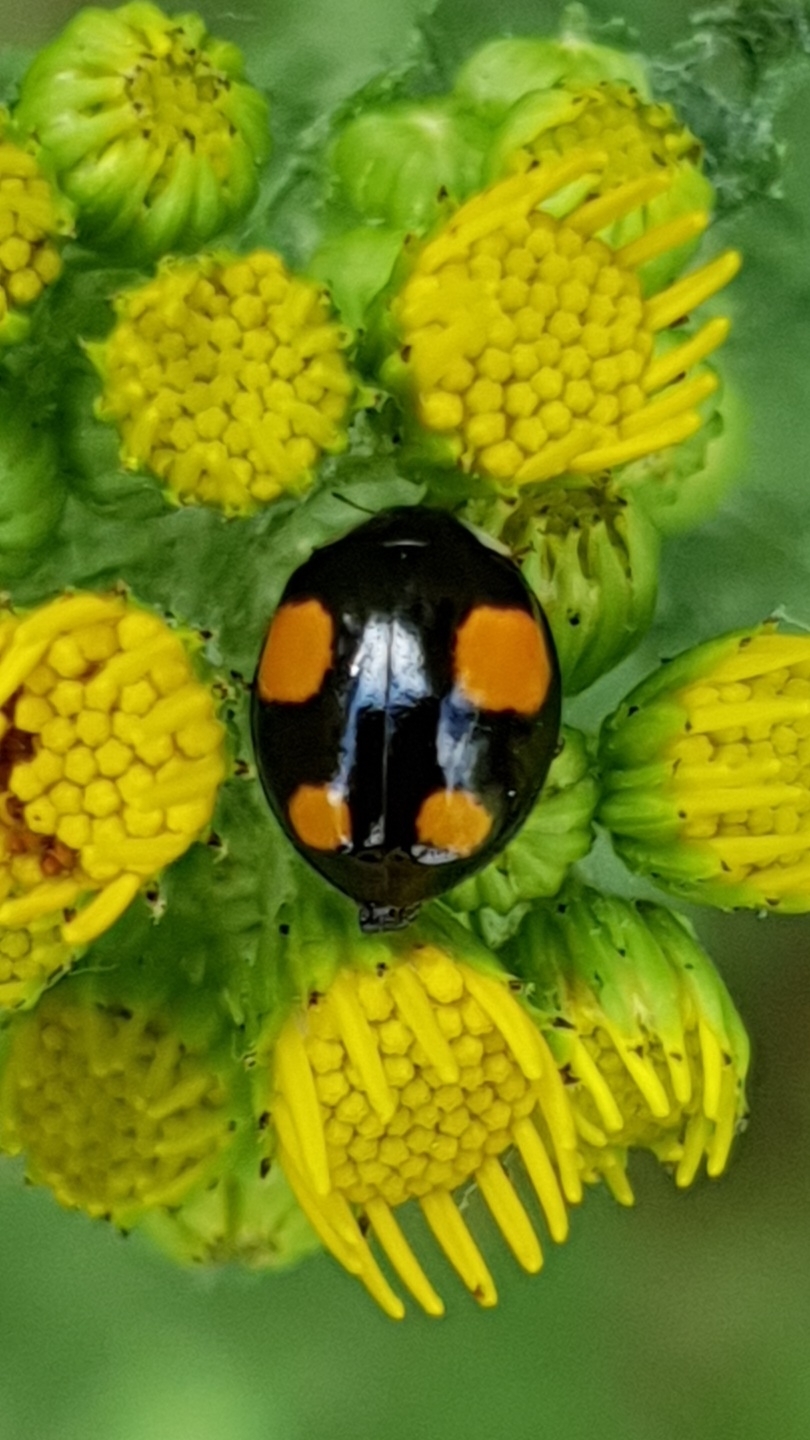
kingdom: Animalia
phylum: Arthropoda
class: Insecta
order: Coleoptera
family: Coccinellidae
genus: Harmonia
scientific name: Harmonia axyridis
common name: Harlequin ladybird
